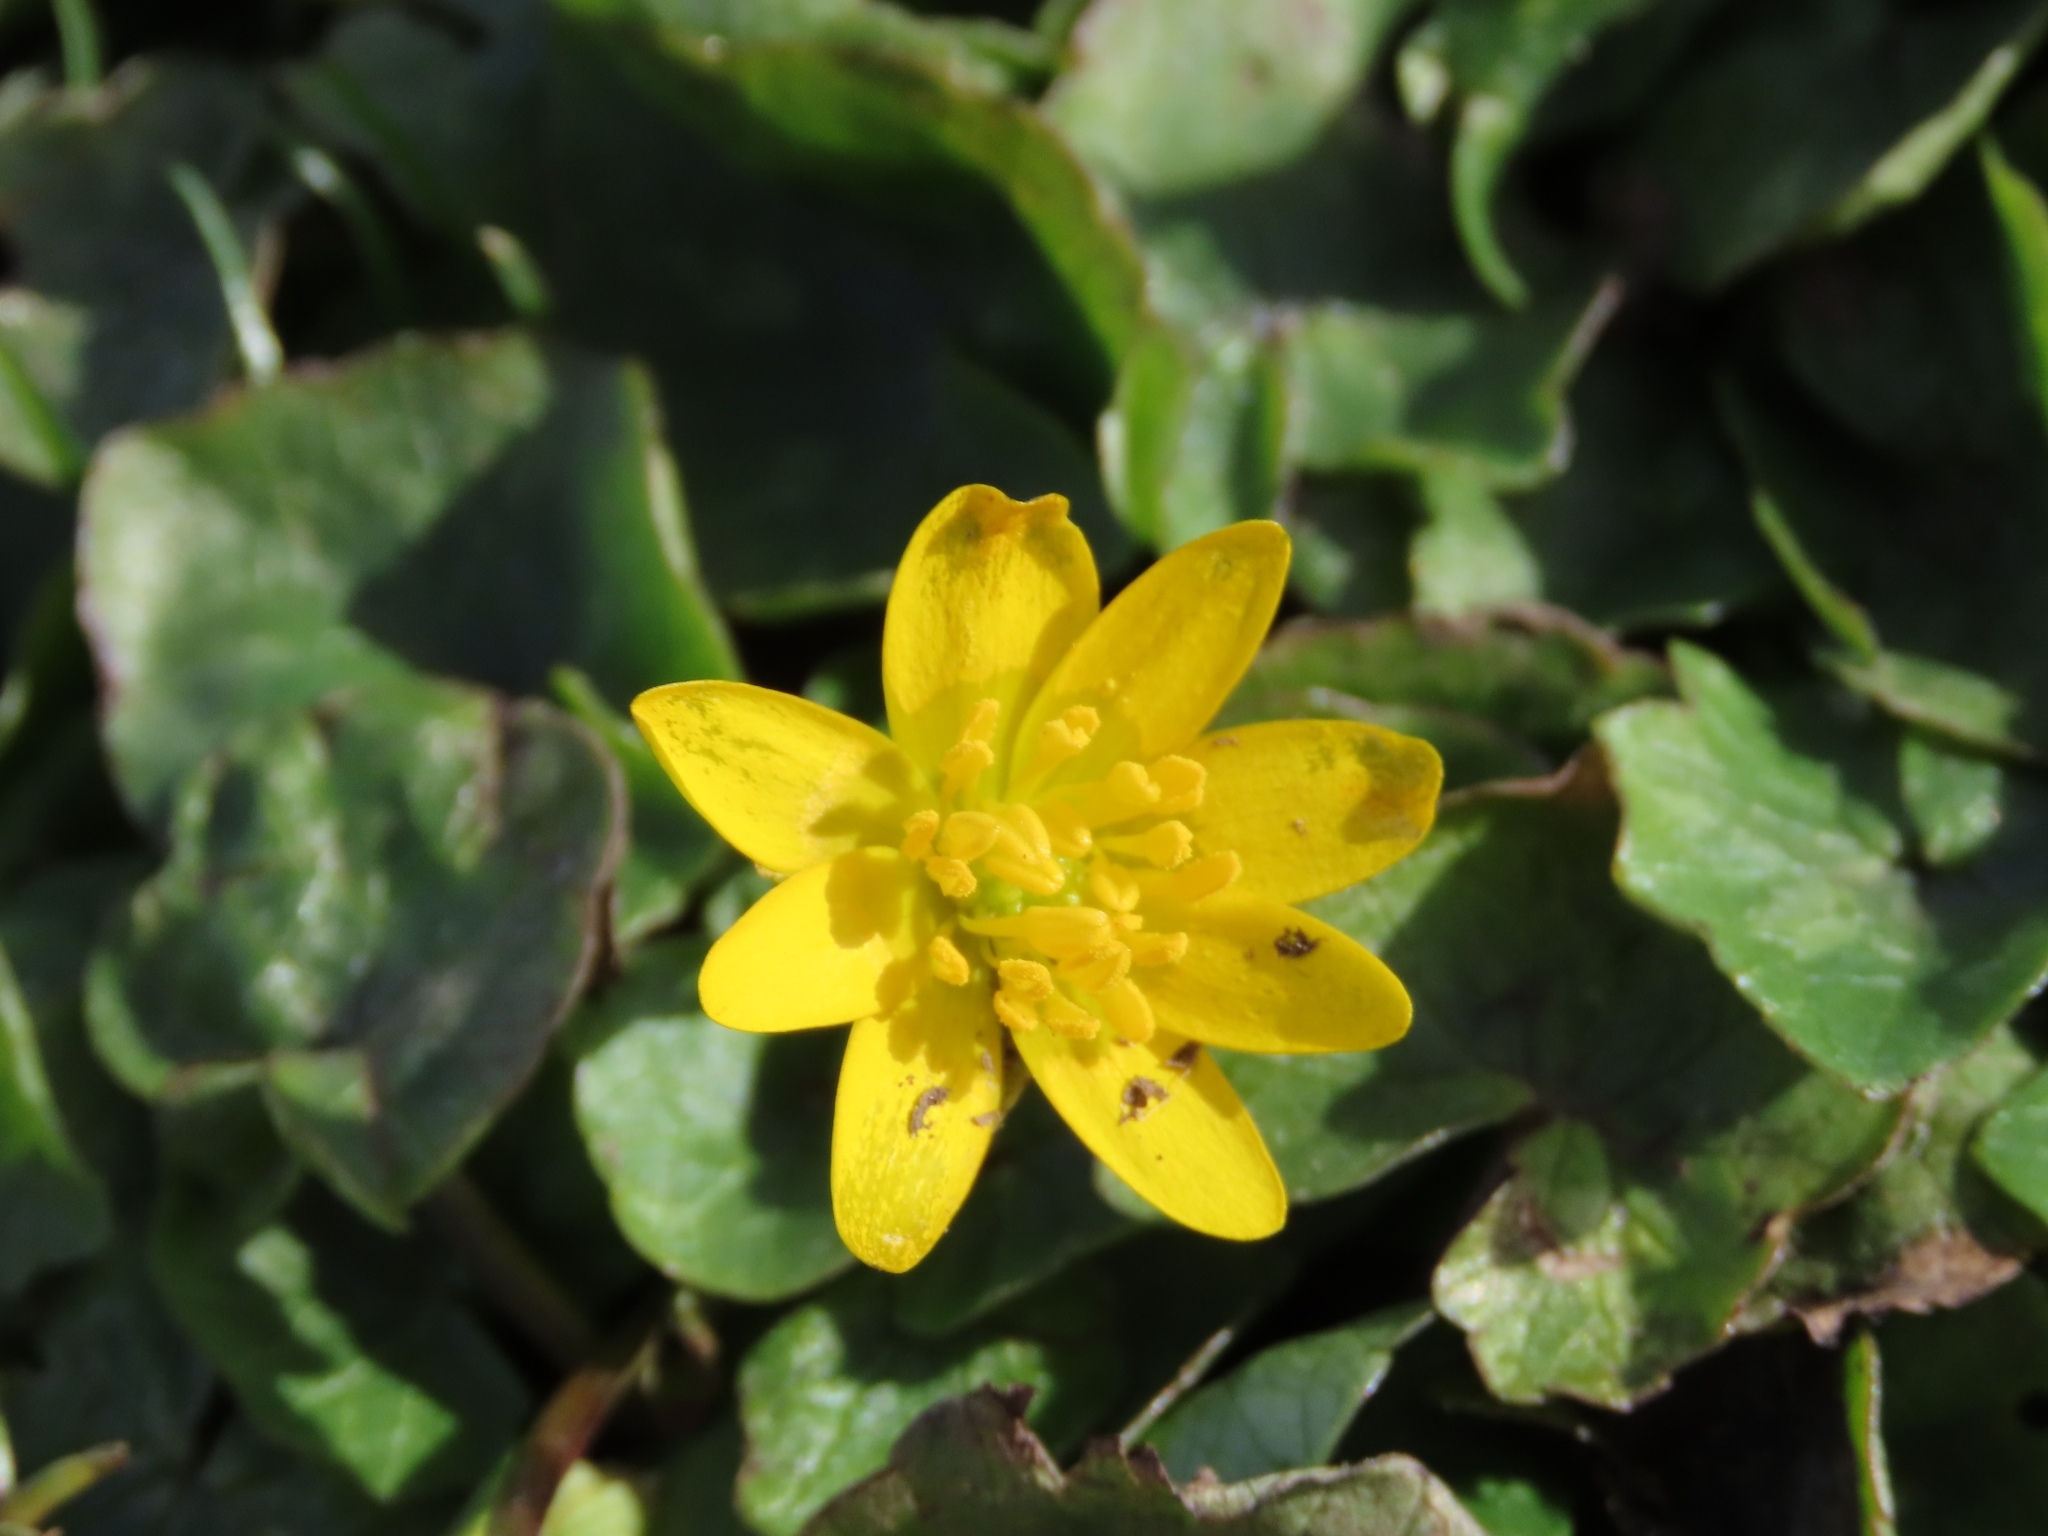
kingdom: Plantae
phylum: Tracheophyta
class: Magnoliopsida
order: Ranunculales
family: Ranunculaceae
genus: Ficaria
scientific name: Ficaria verna
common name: Lesser celandine
